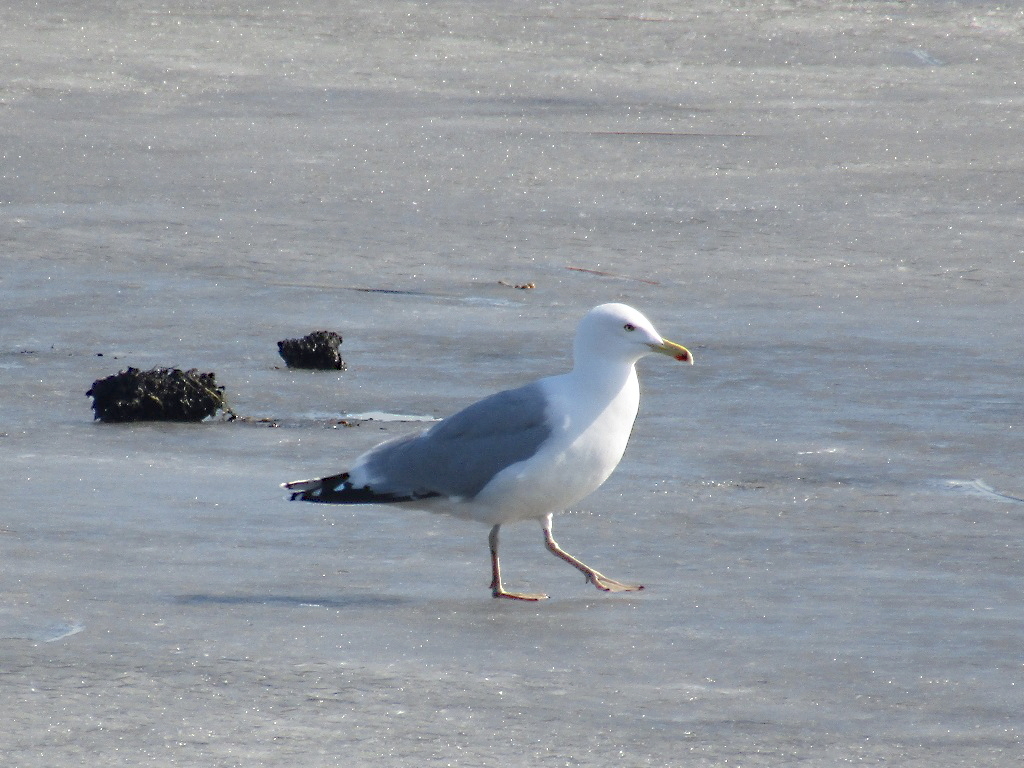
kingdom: Animalia
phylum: Chordata
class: Aves
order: Charadriiformes
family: Laridae
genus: Larus
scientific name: Larus argentatus
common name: Herring gull
